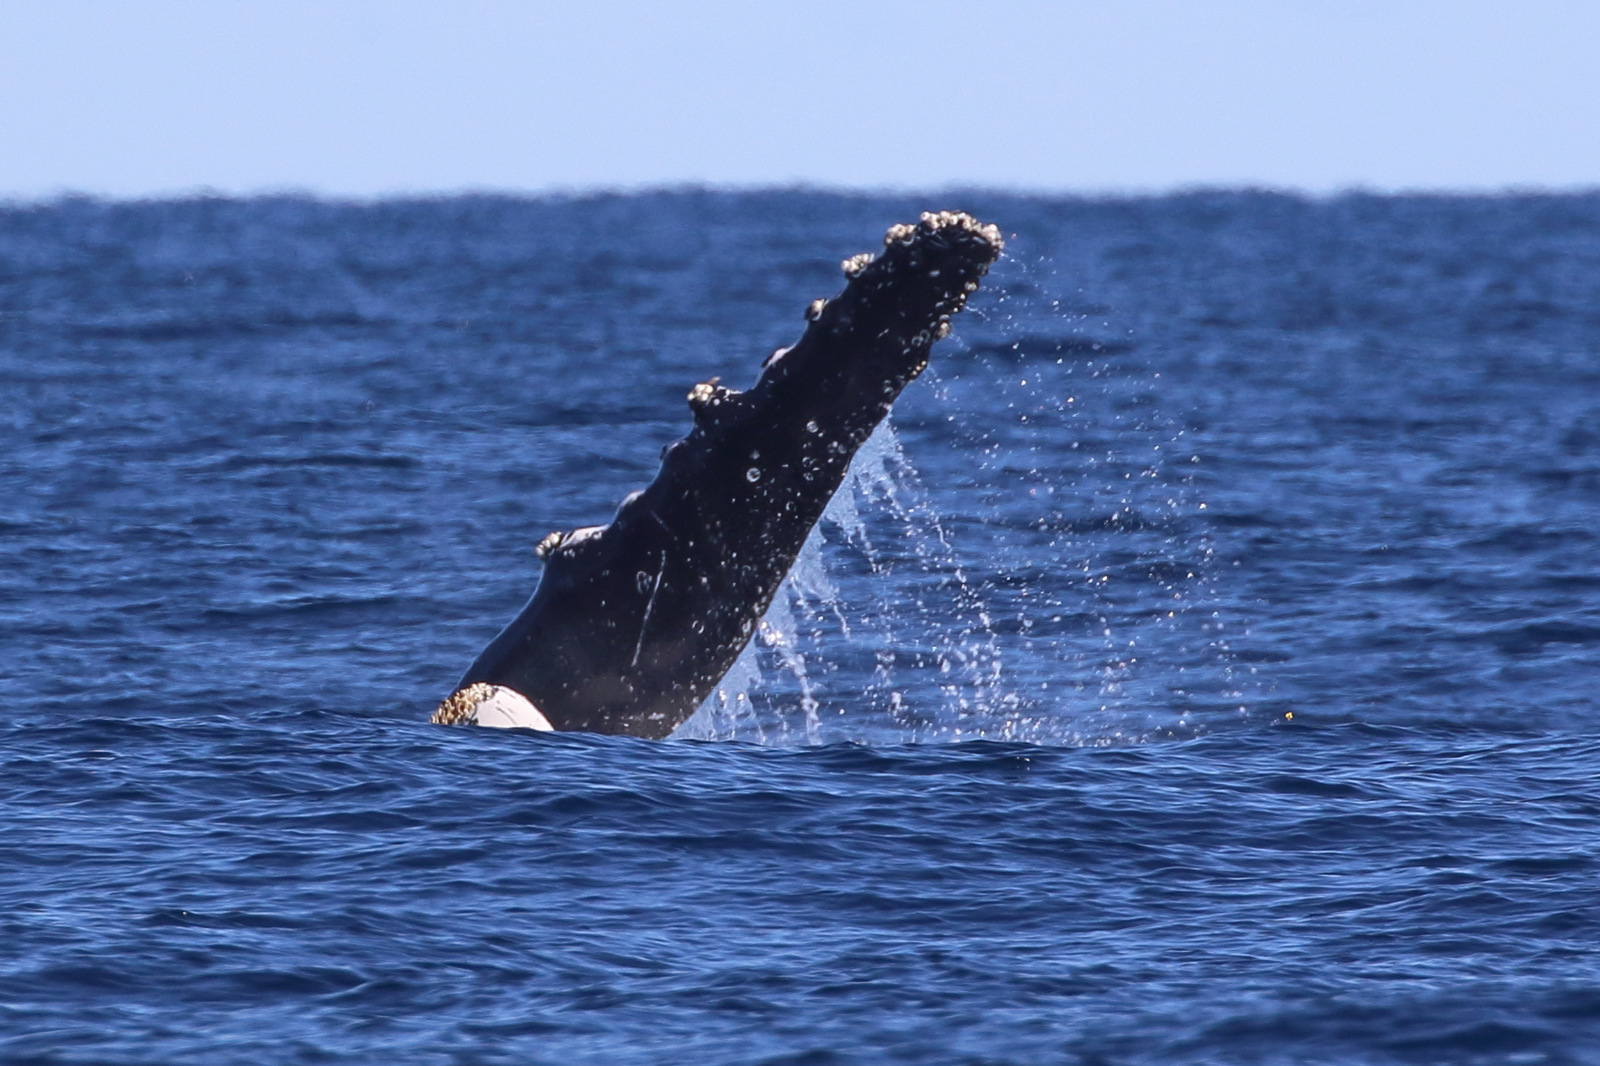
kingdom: Animalia
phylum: Chordata
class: Mammalia
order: Cetacea
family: Balaenopteridae
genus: Megaptera
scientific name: Megaptera novaeangliae
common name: Humpback whale
